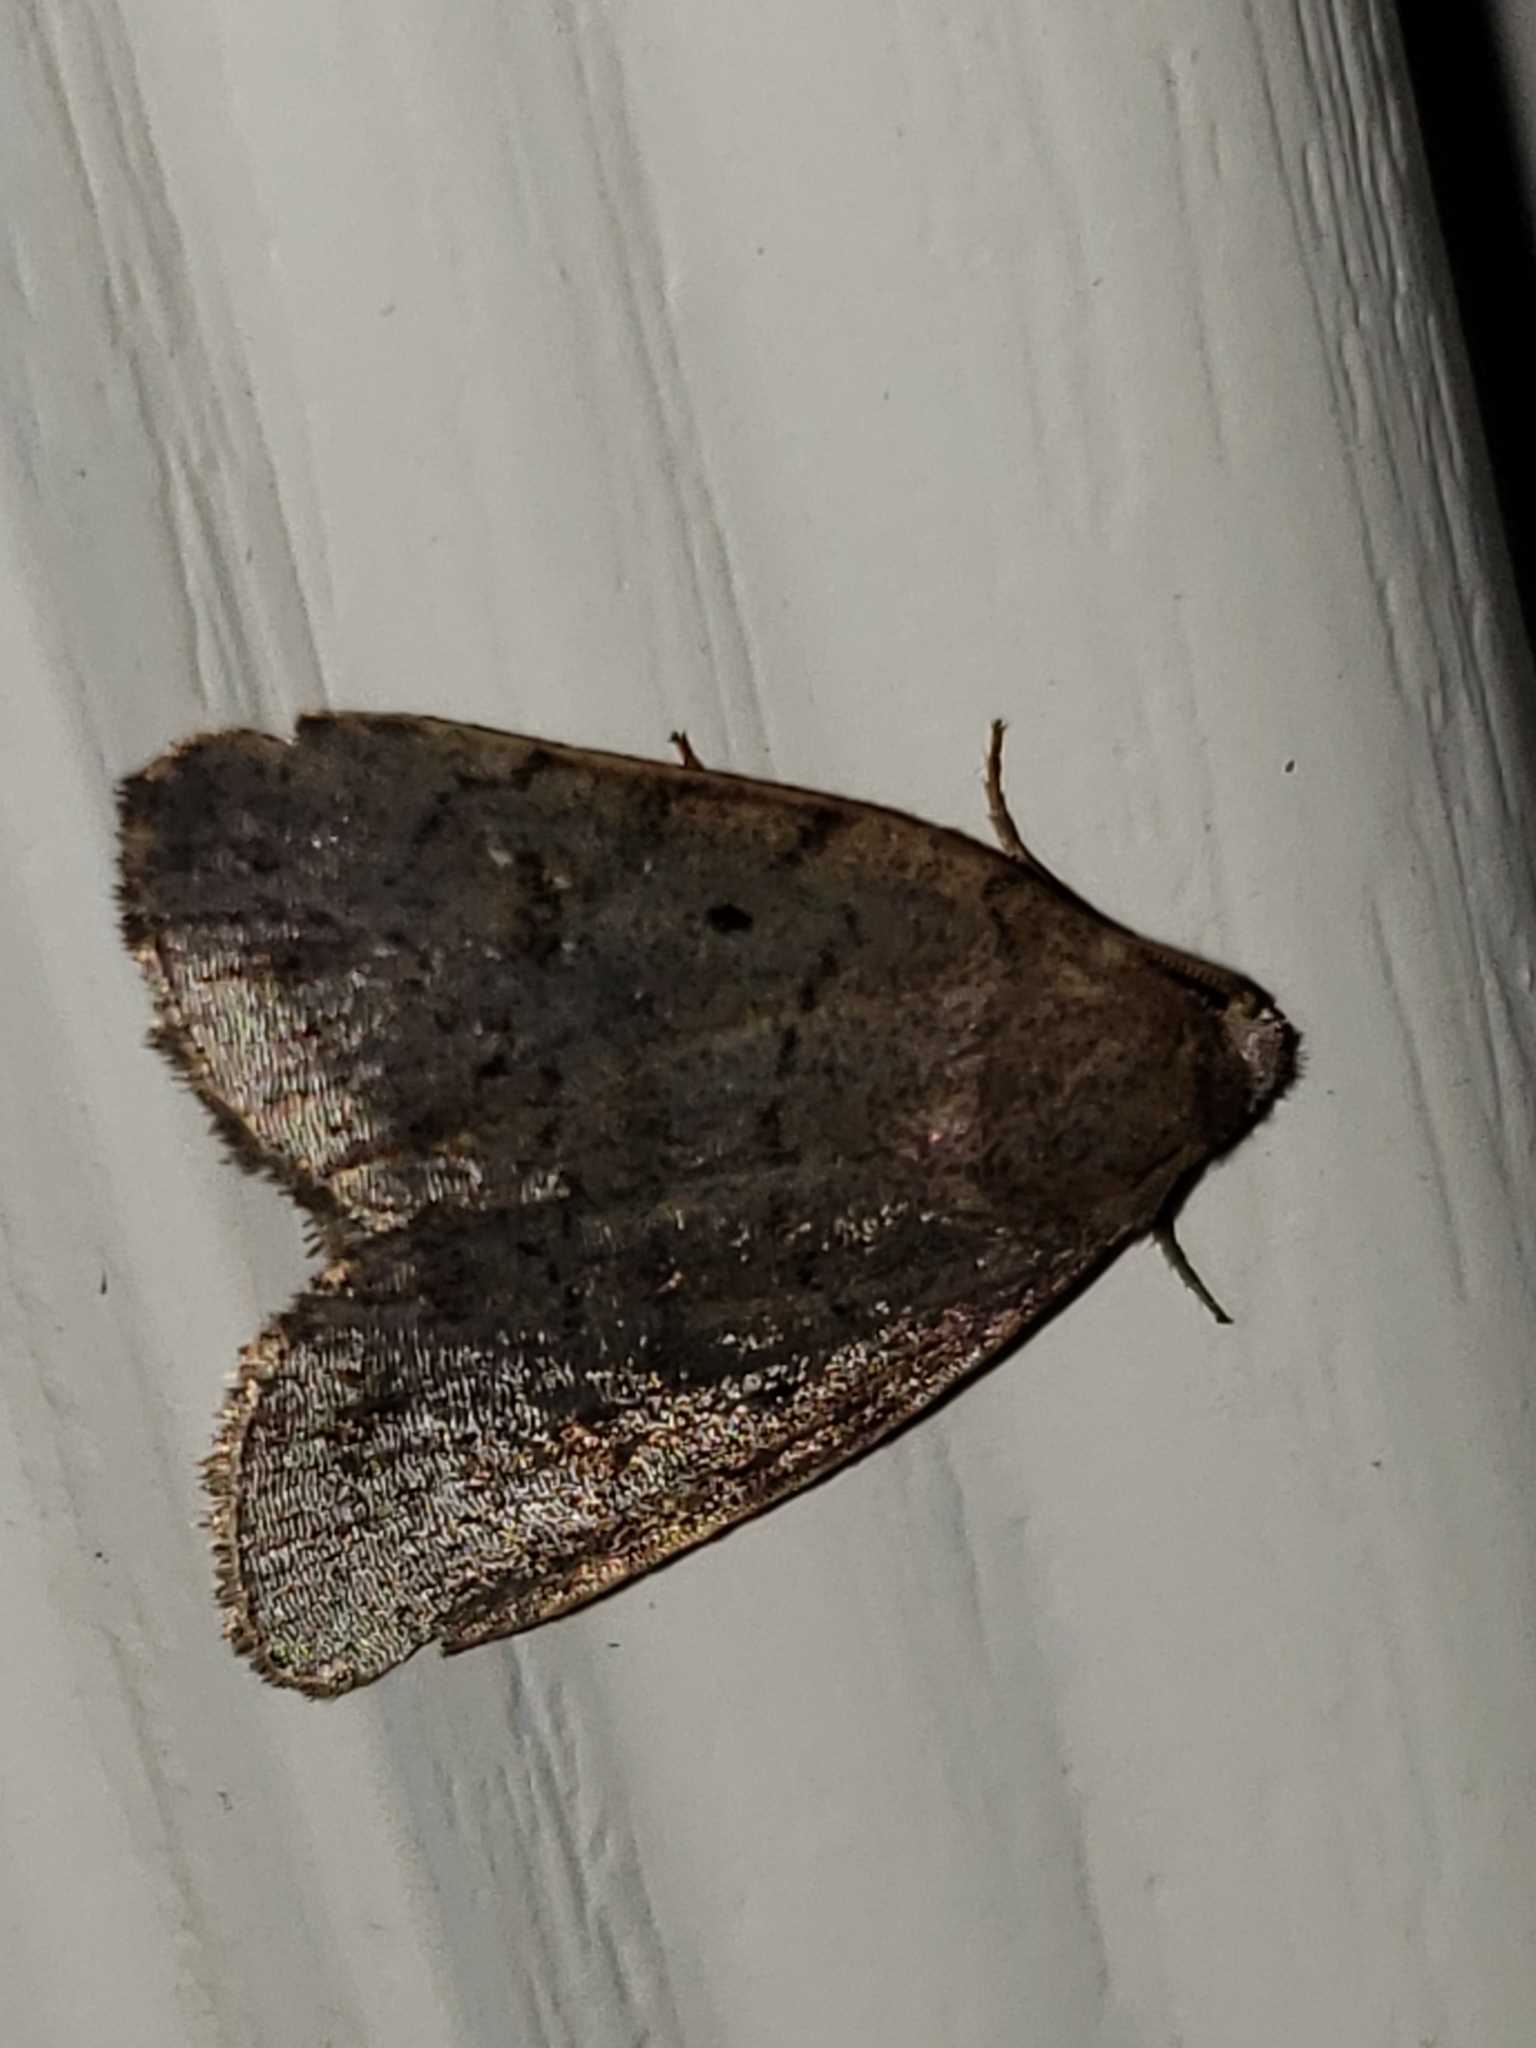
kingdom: Animalia
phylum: Arthropoda
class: Insecta
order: Lepidoptera
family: Noctuidae
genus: Athetis
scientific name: Athetis tarda
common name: Slowpoke moth
